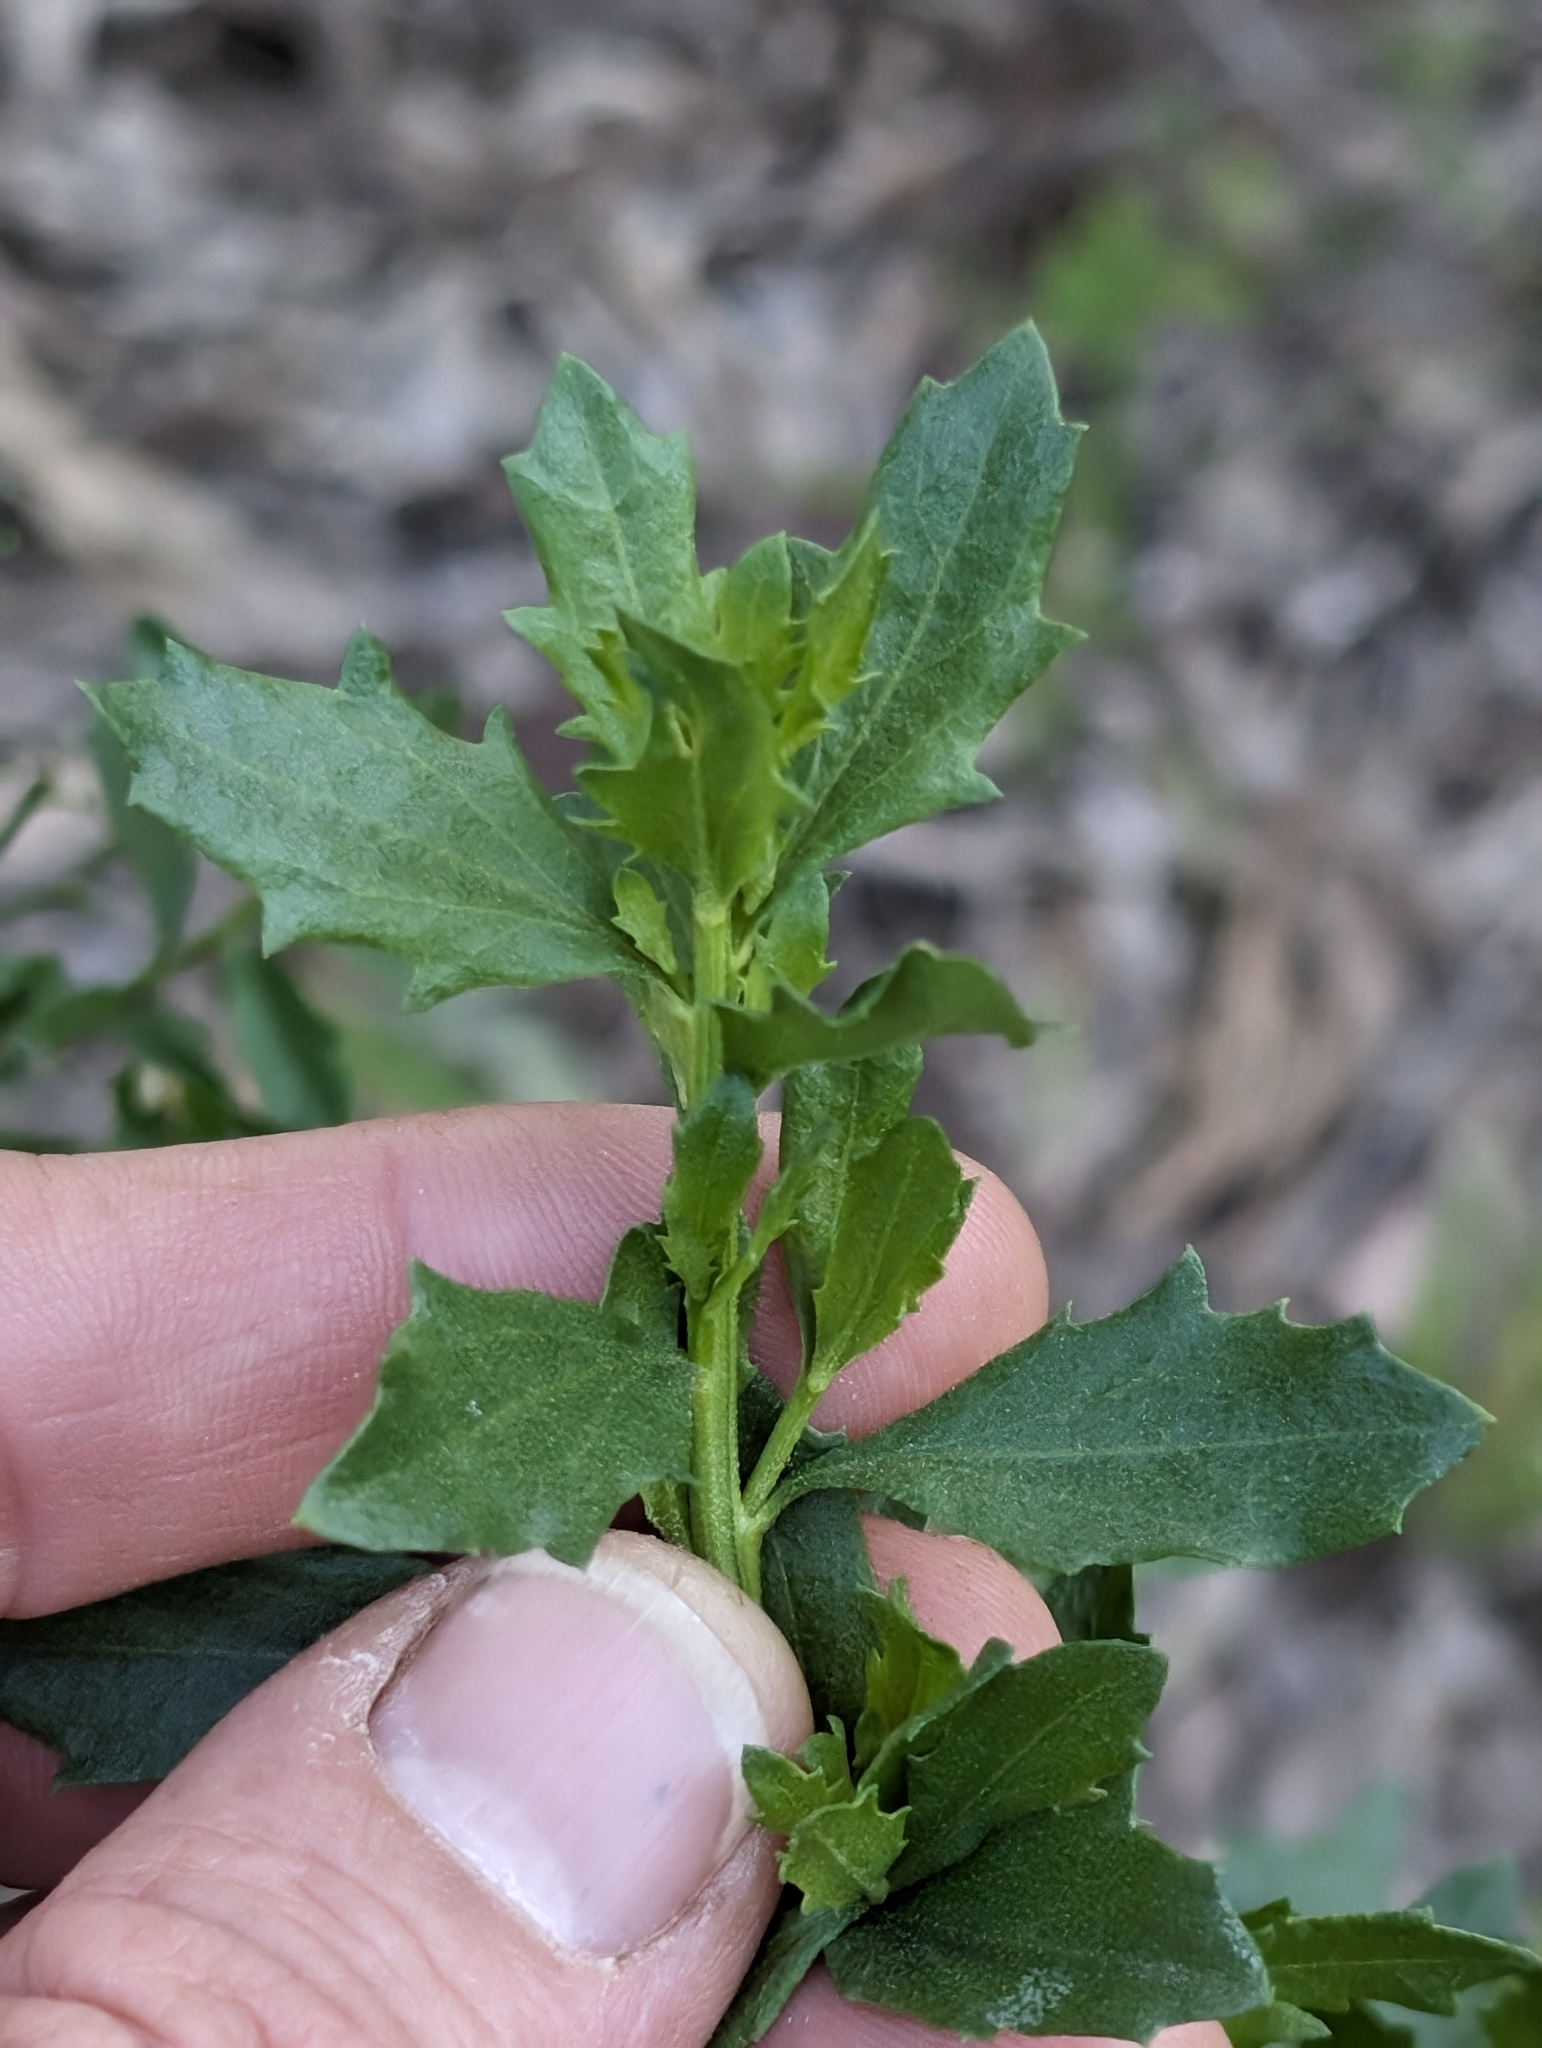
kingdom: Plantae
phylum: Tracheophyta
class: Magnoliopsida
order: Asterales
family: Asteraceae
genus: Baccharis
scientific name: Baccharis pilularis
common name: Coyotebrush
